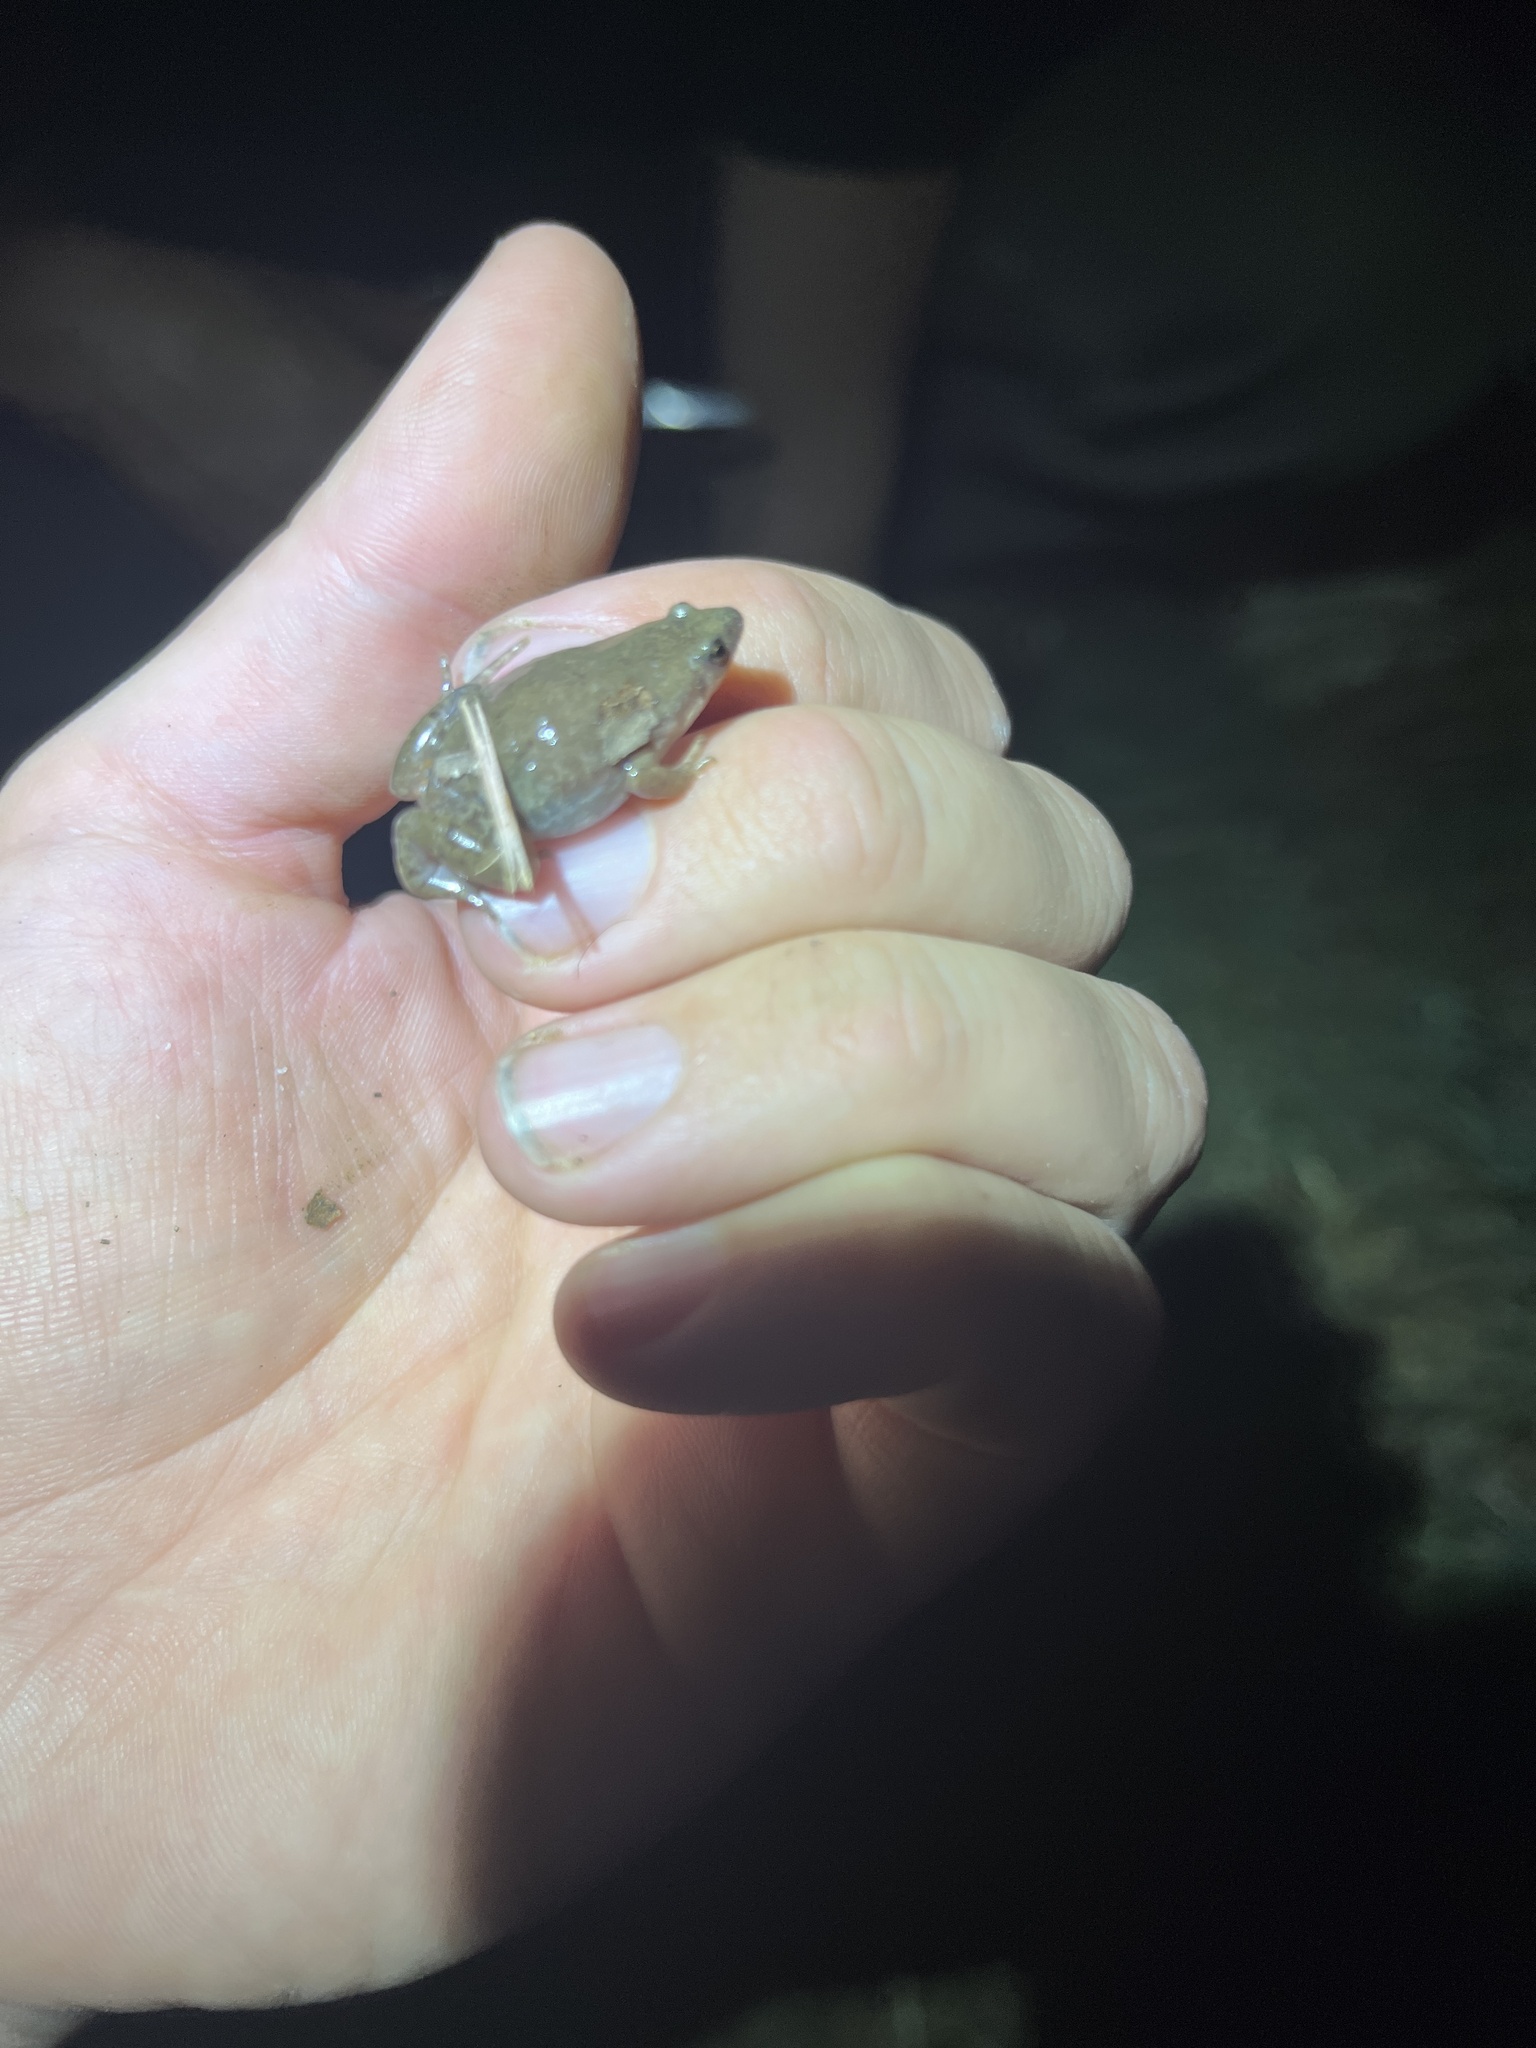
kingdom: Animalia
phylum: Chordata
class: Amphibia
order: Anura
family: Microhylidae
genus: Gastrophryne
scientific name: Gastrophryne olivacea
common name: Great plains narrow-mouthed toad
